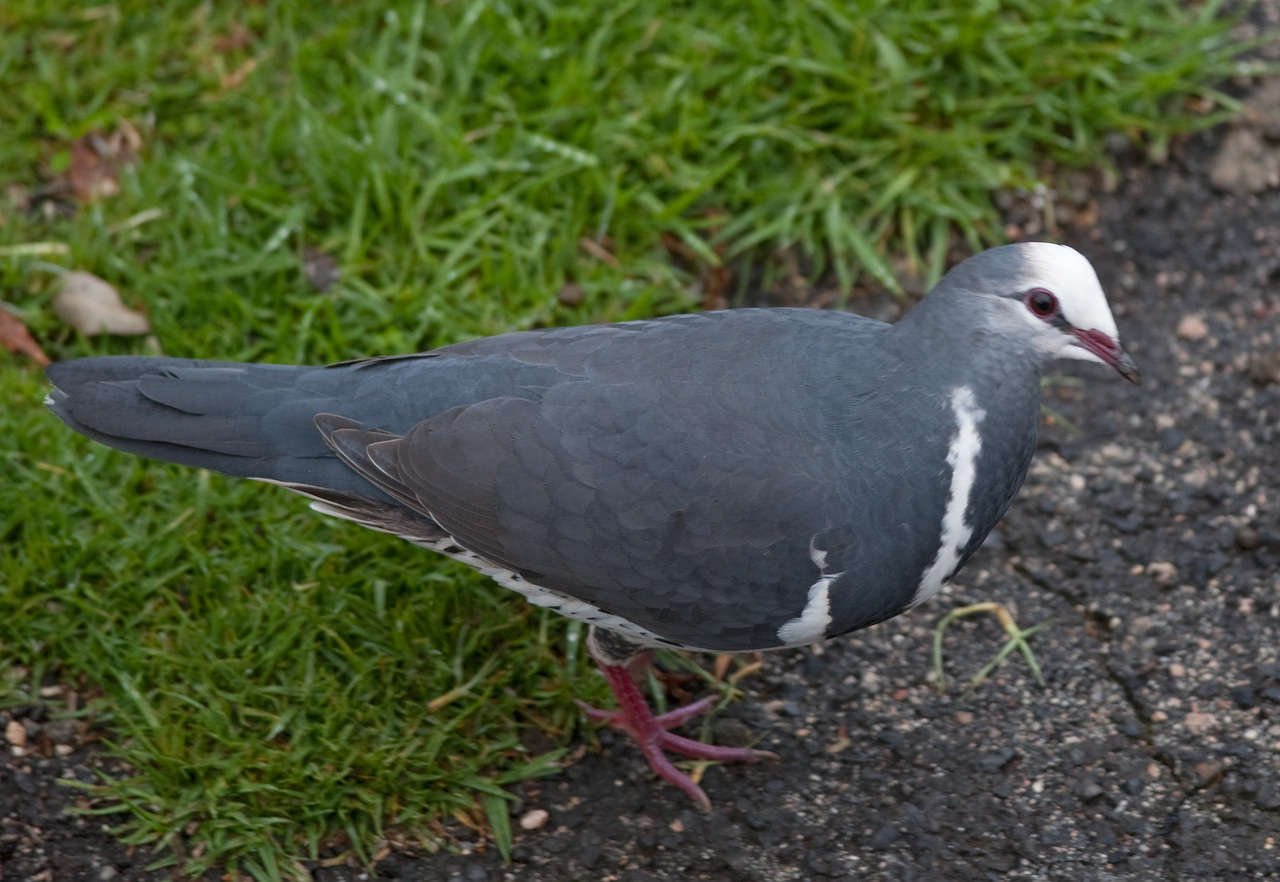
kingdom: Animalia
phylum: Chordata
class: Aves
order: Columbiformes
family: Columbidae
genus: Leucosarcia
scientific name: Leucosarcia melanoleuca
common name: Wonga pigeon
